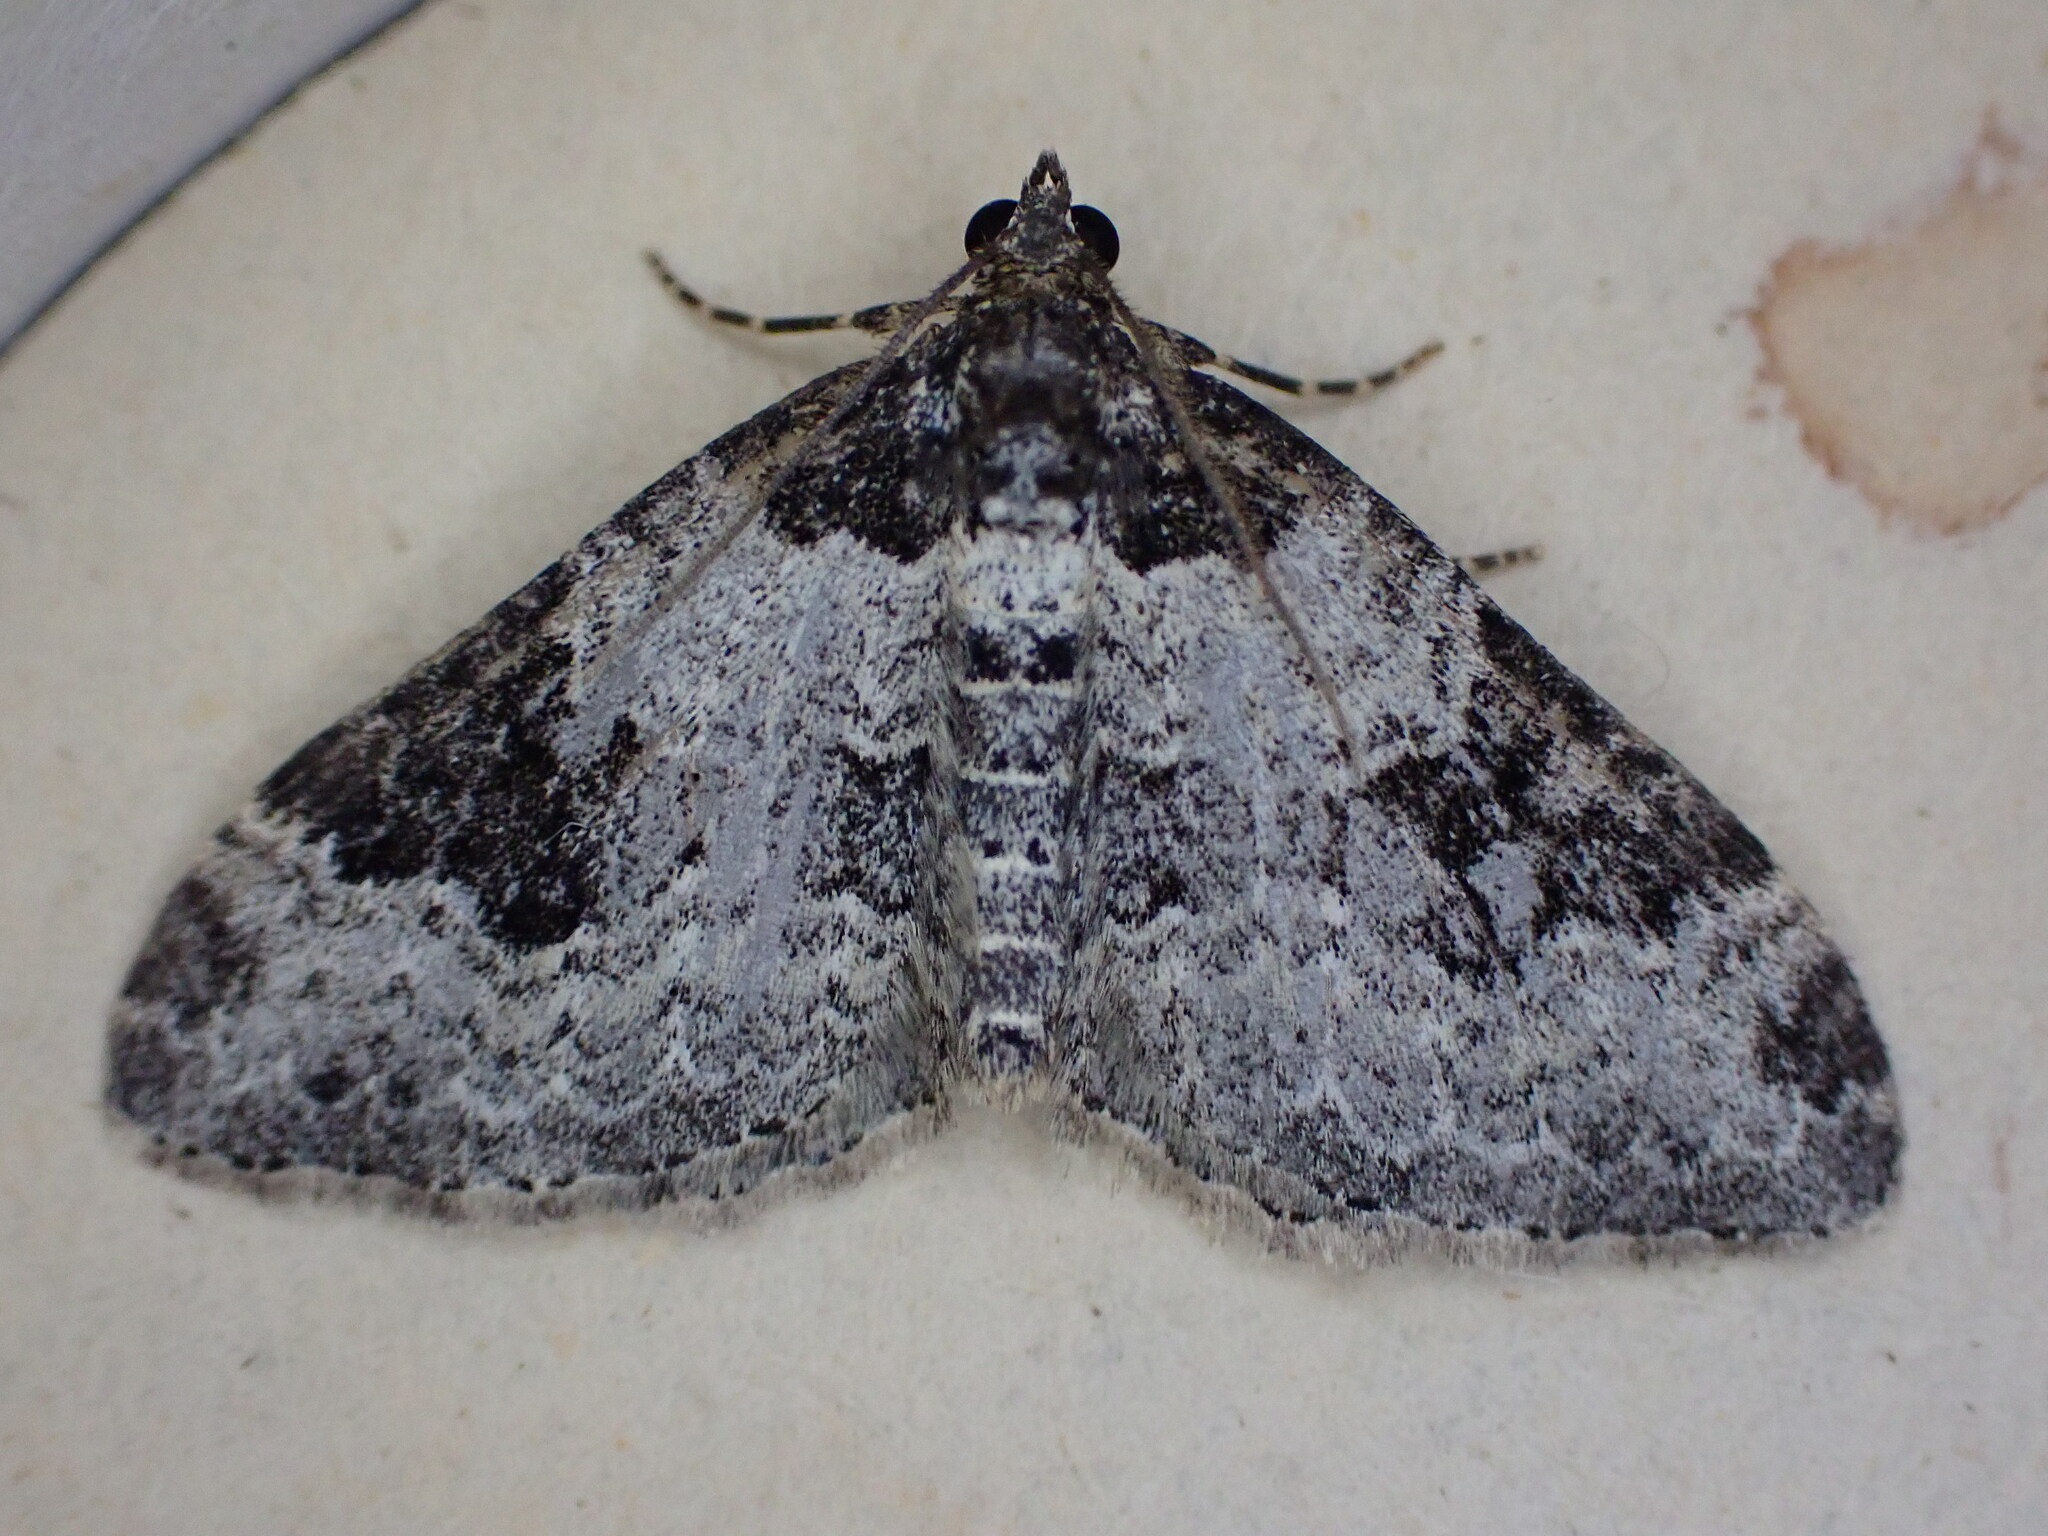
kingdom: Animalia
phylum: Arthropoda
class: Insecta
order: Lepidoptera
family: Geometridae
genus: Xanthorhoe
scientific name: Xanthorhoe fluctuata
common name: Garden carpet
